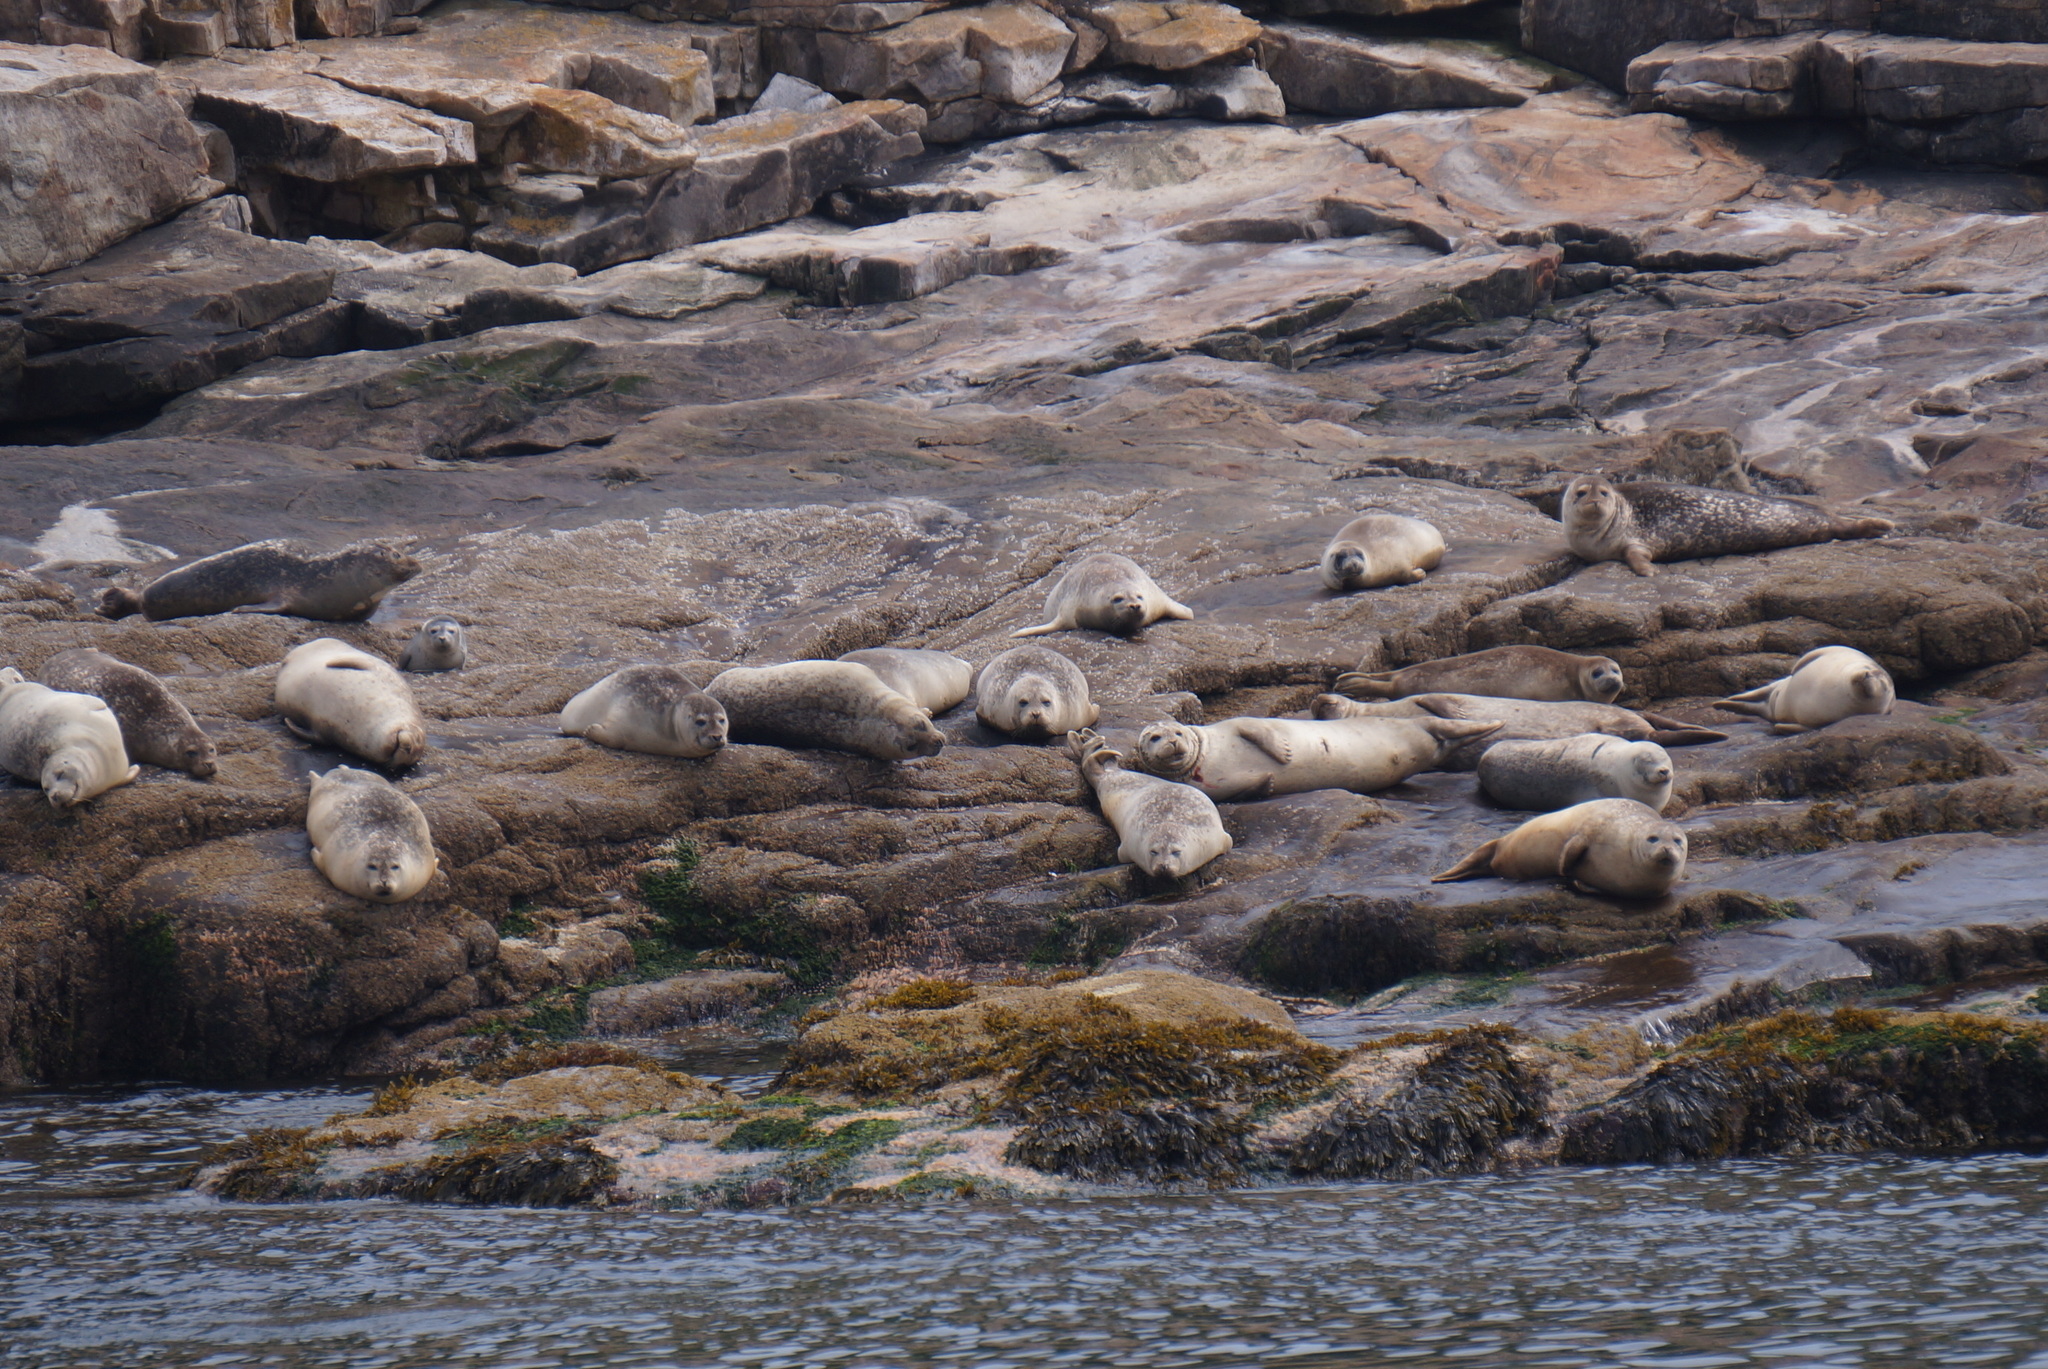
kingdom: Animalia
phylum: Chordata
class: Mammalia
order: Carnivora
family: Phocidae
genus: Phoca
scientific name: Phoca vitulina
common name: Harbor seal
